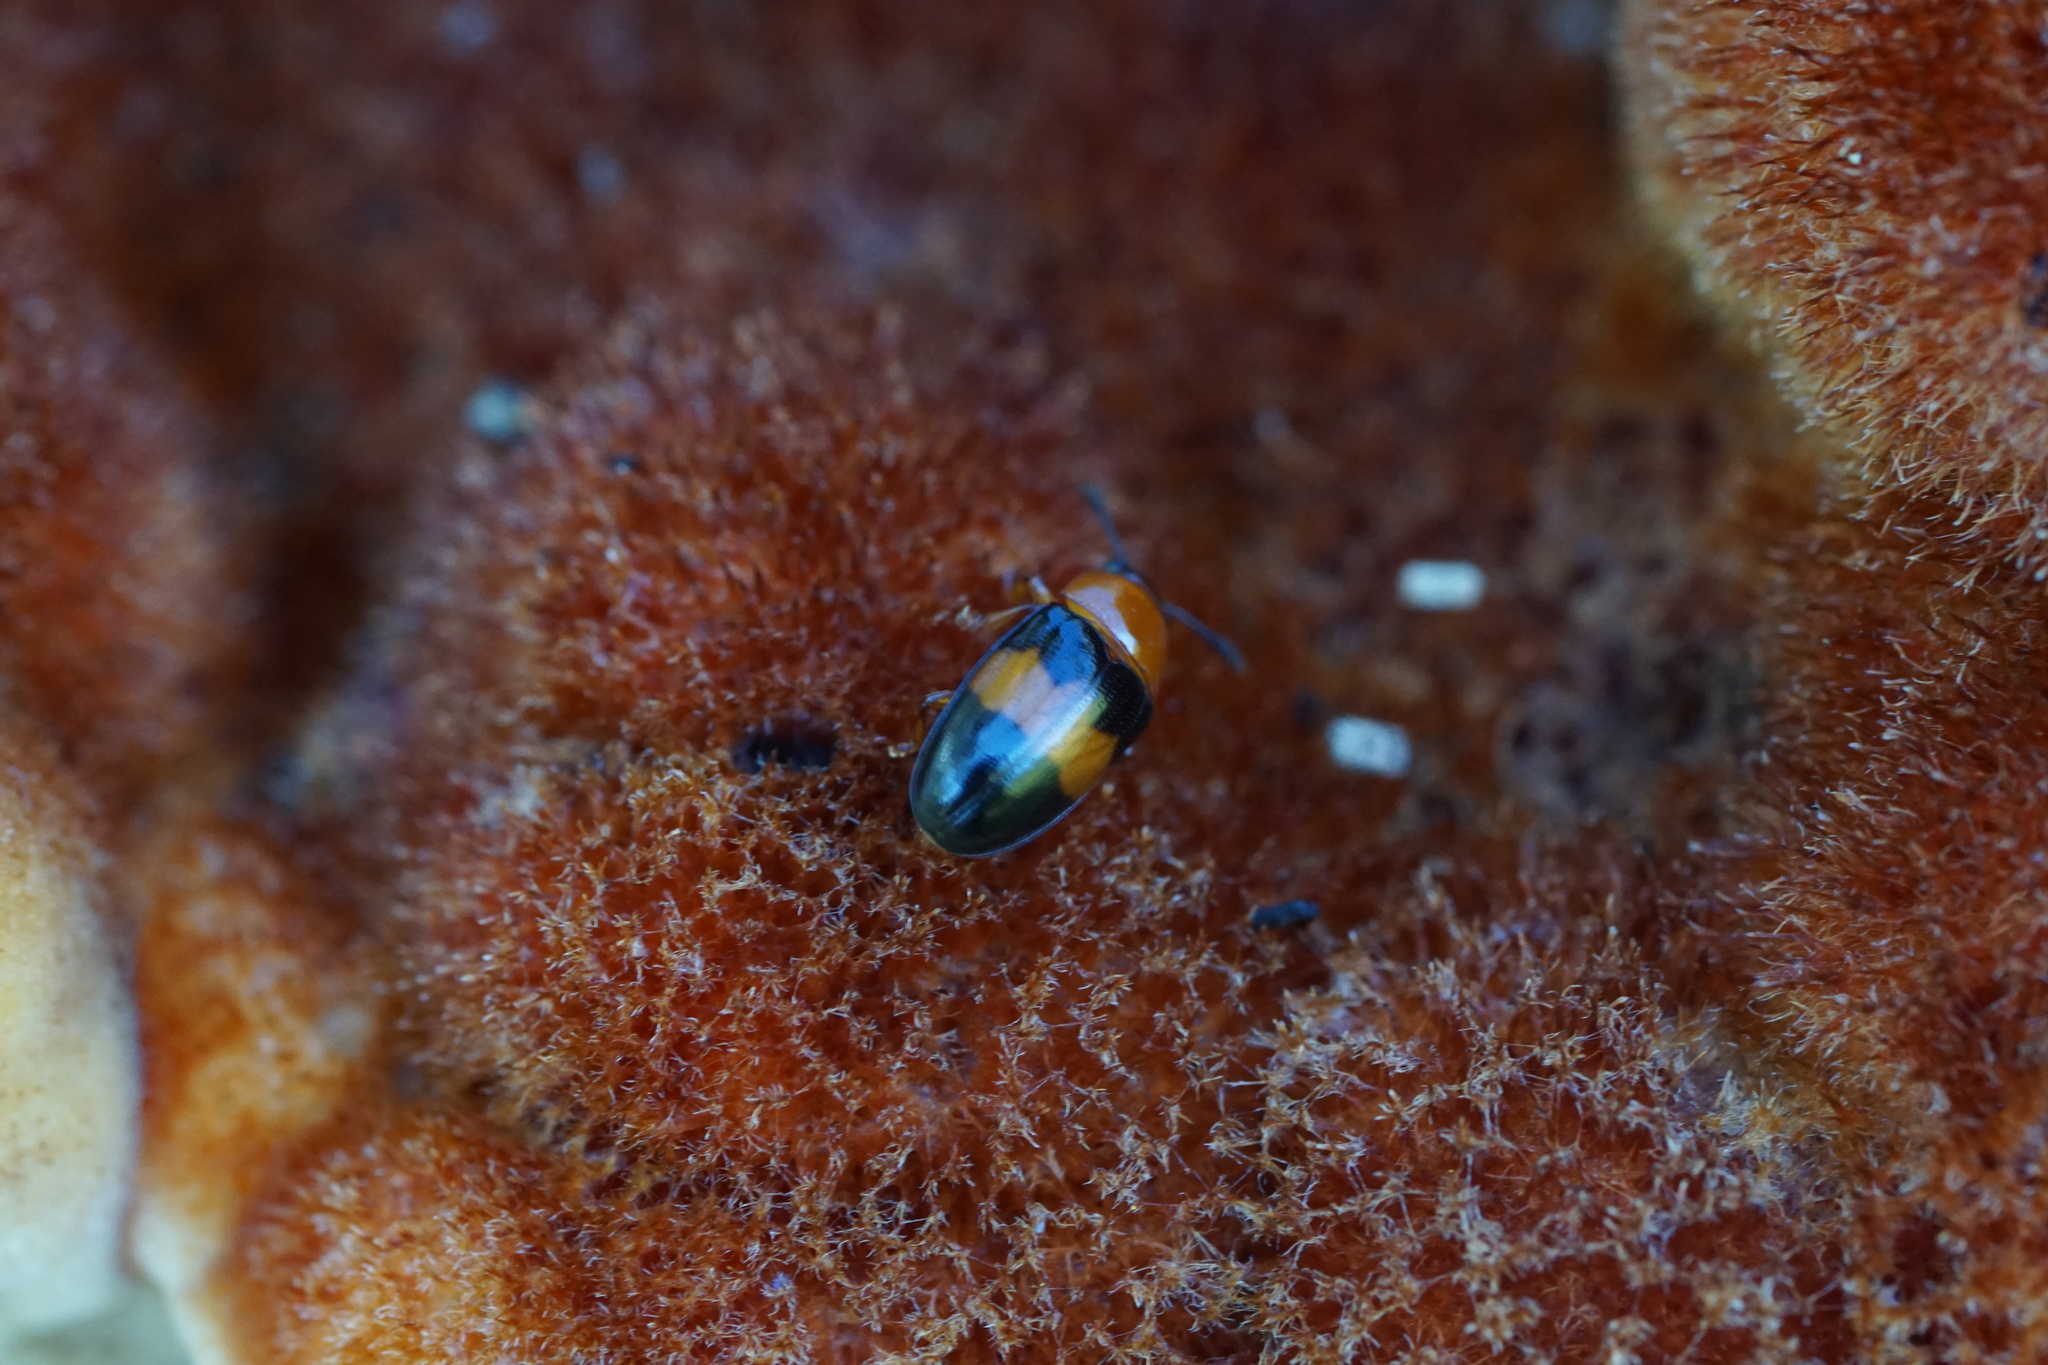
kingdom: Animalia
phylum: Arthropoda
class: Insecta
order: Coleoptera
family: Erotylidae
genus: Triplax
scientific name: Triplax festiva
